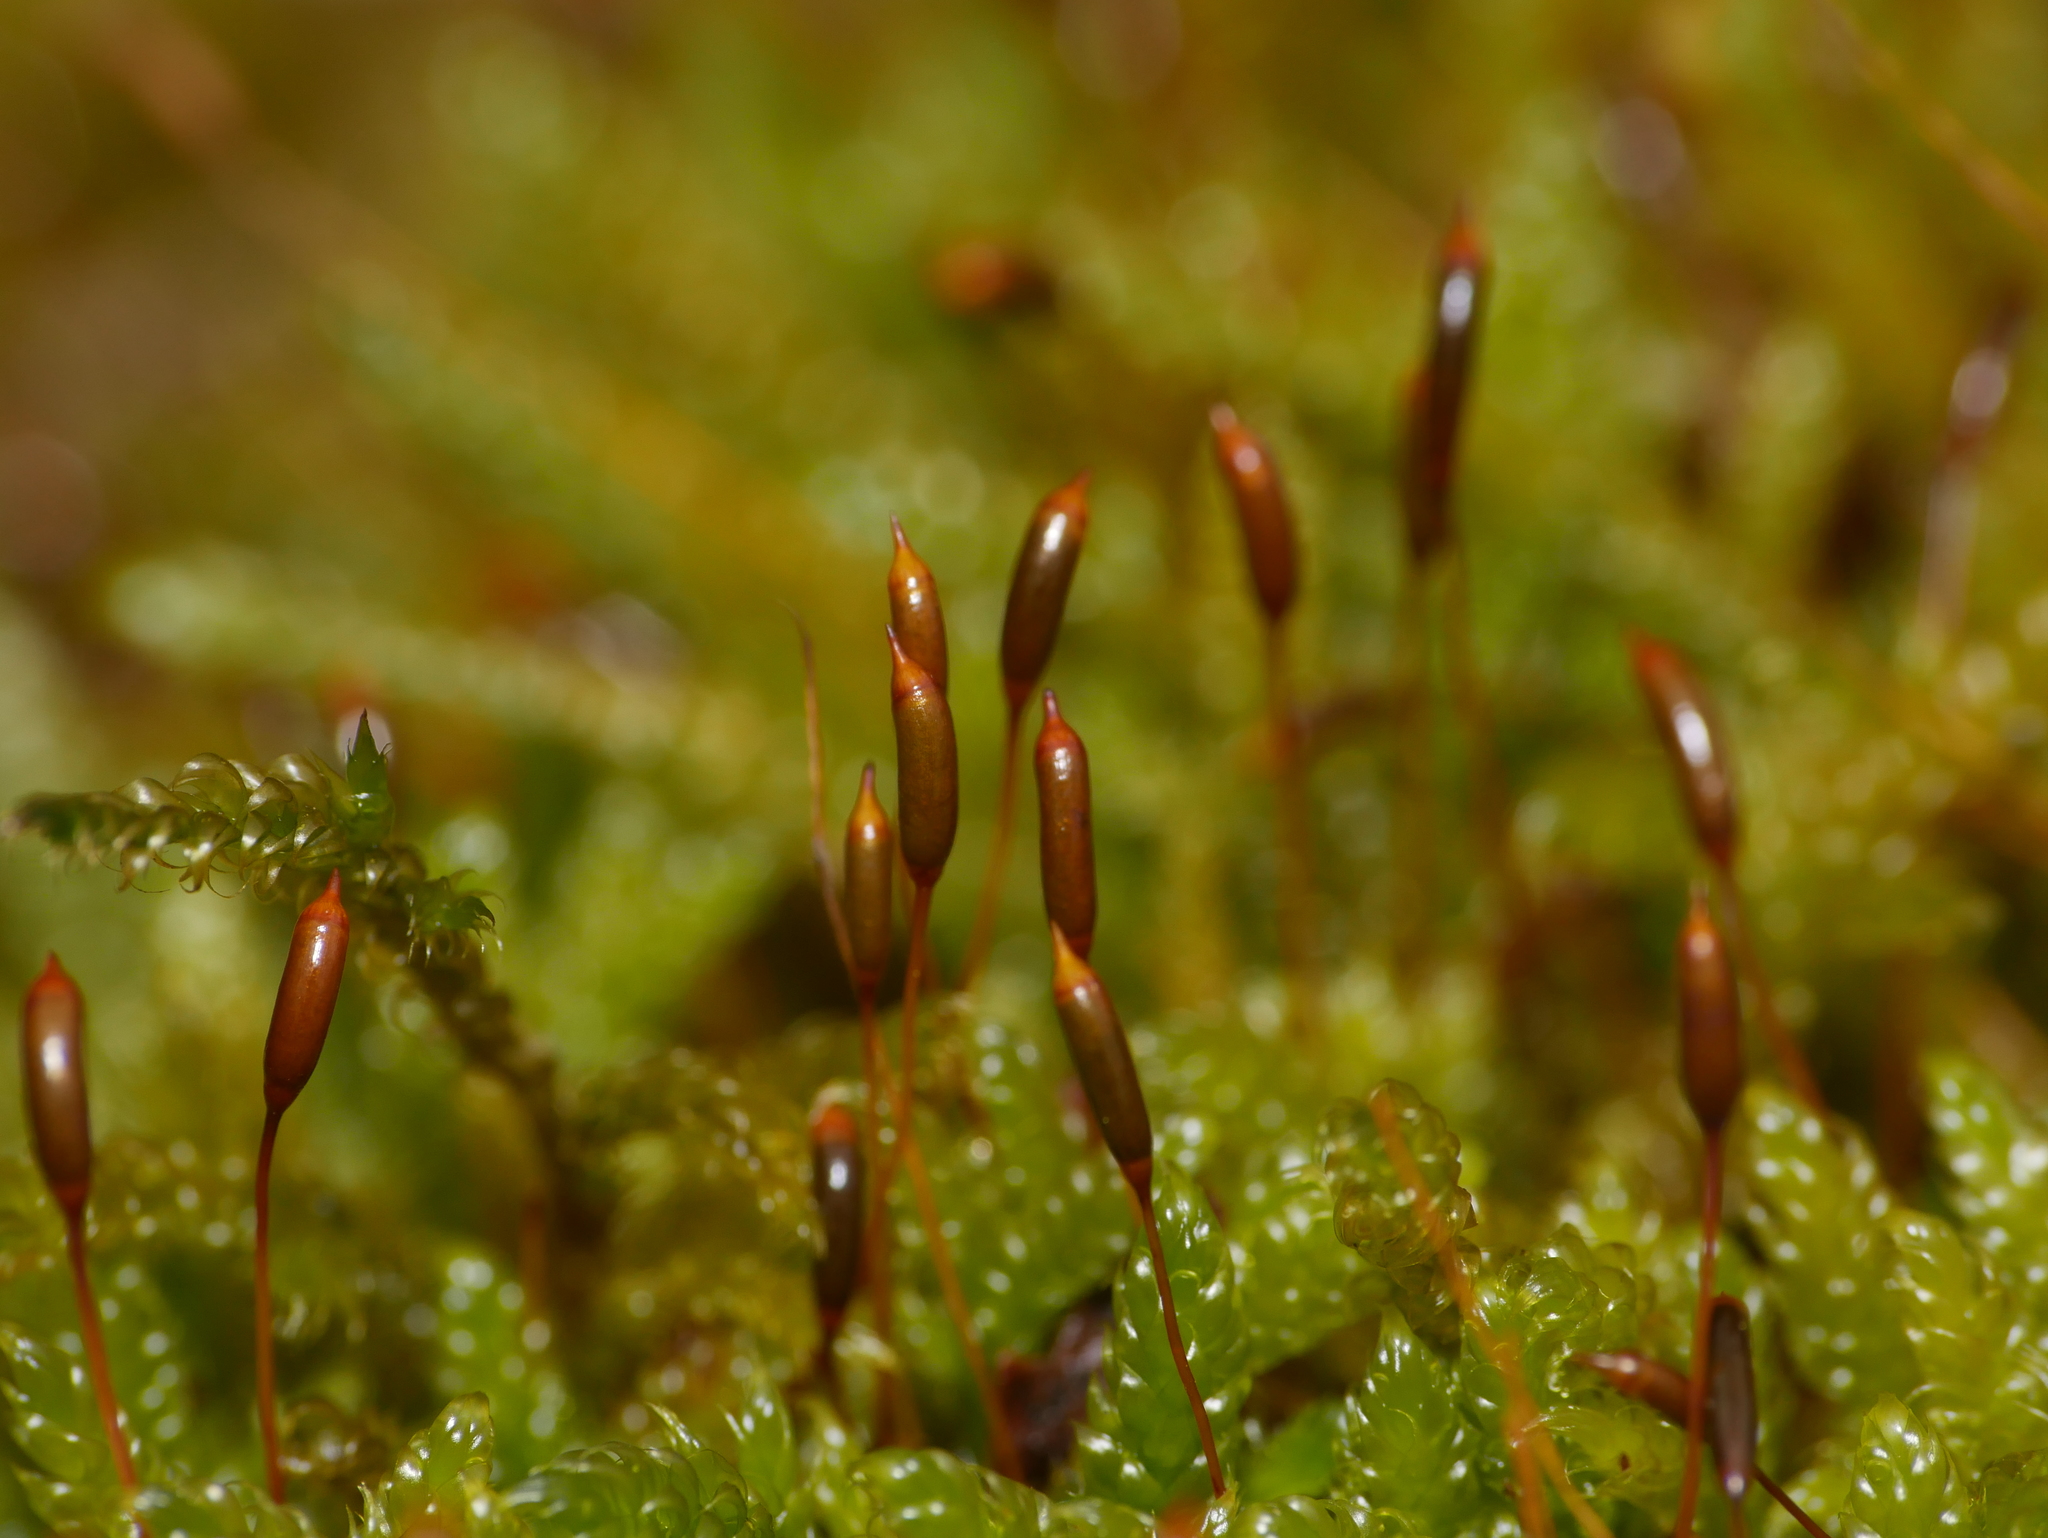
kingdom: Plantae
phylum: Bryophyta
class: Bryopsida
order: Hypnales
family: Hypnaceae
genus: Hypnum
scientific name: Hypnum cupressiforme
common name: Cypress-leaved plait-moss
